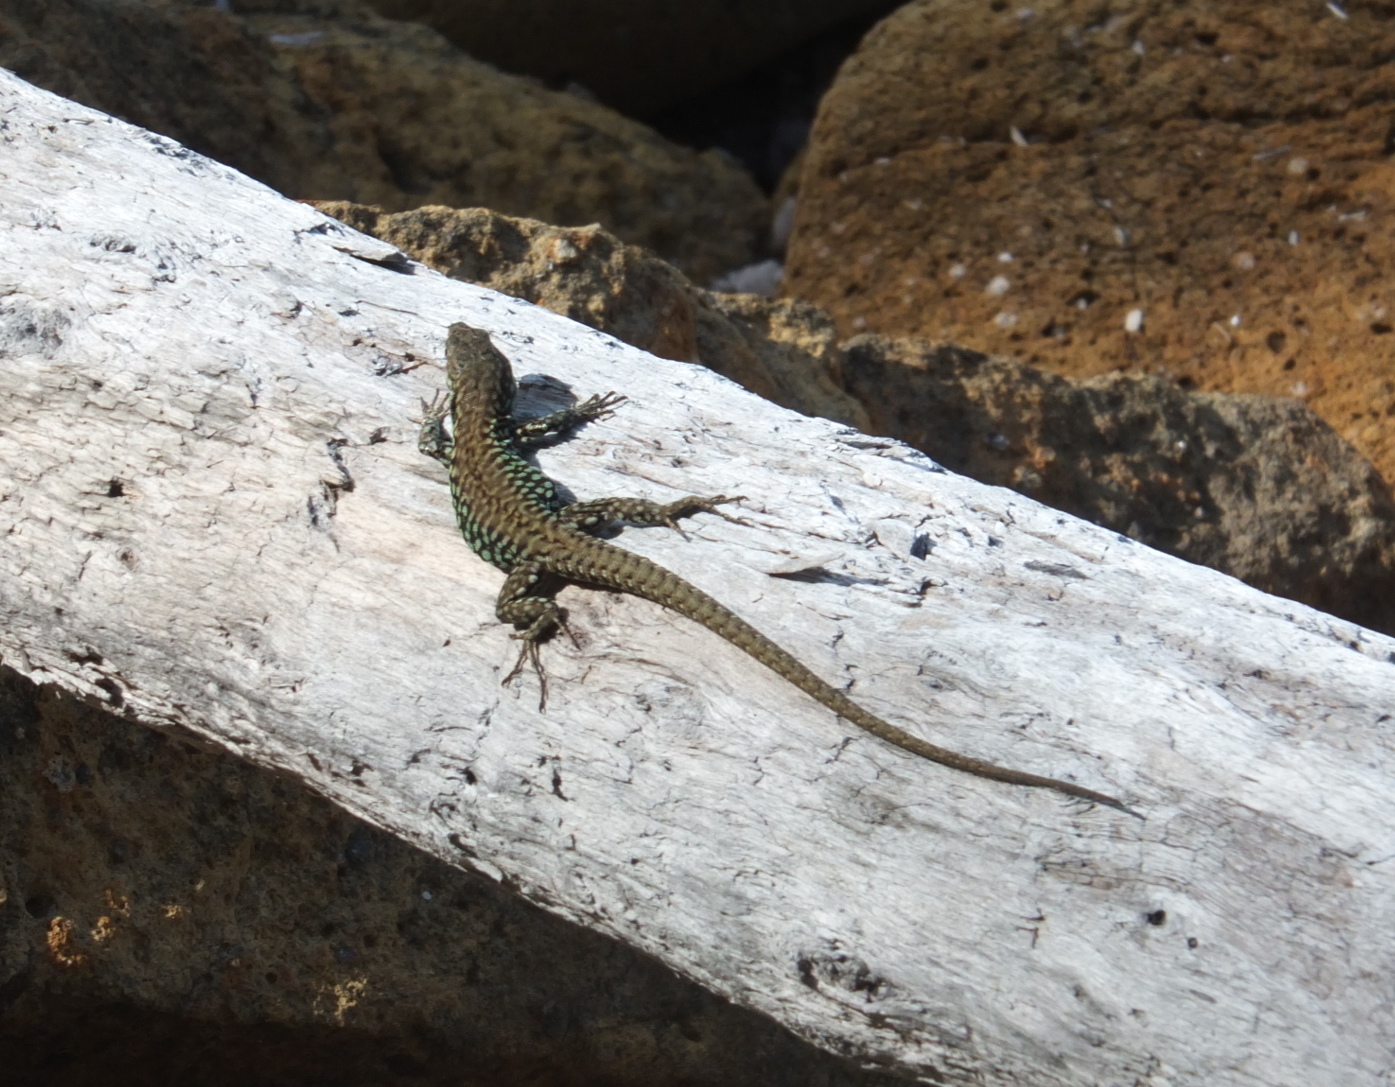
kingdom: Animalia
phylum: Chordata
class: Squamata
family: Lacertidae
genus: Podarcis
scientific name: Podarcis muralis
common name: Common wall lizard
